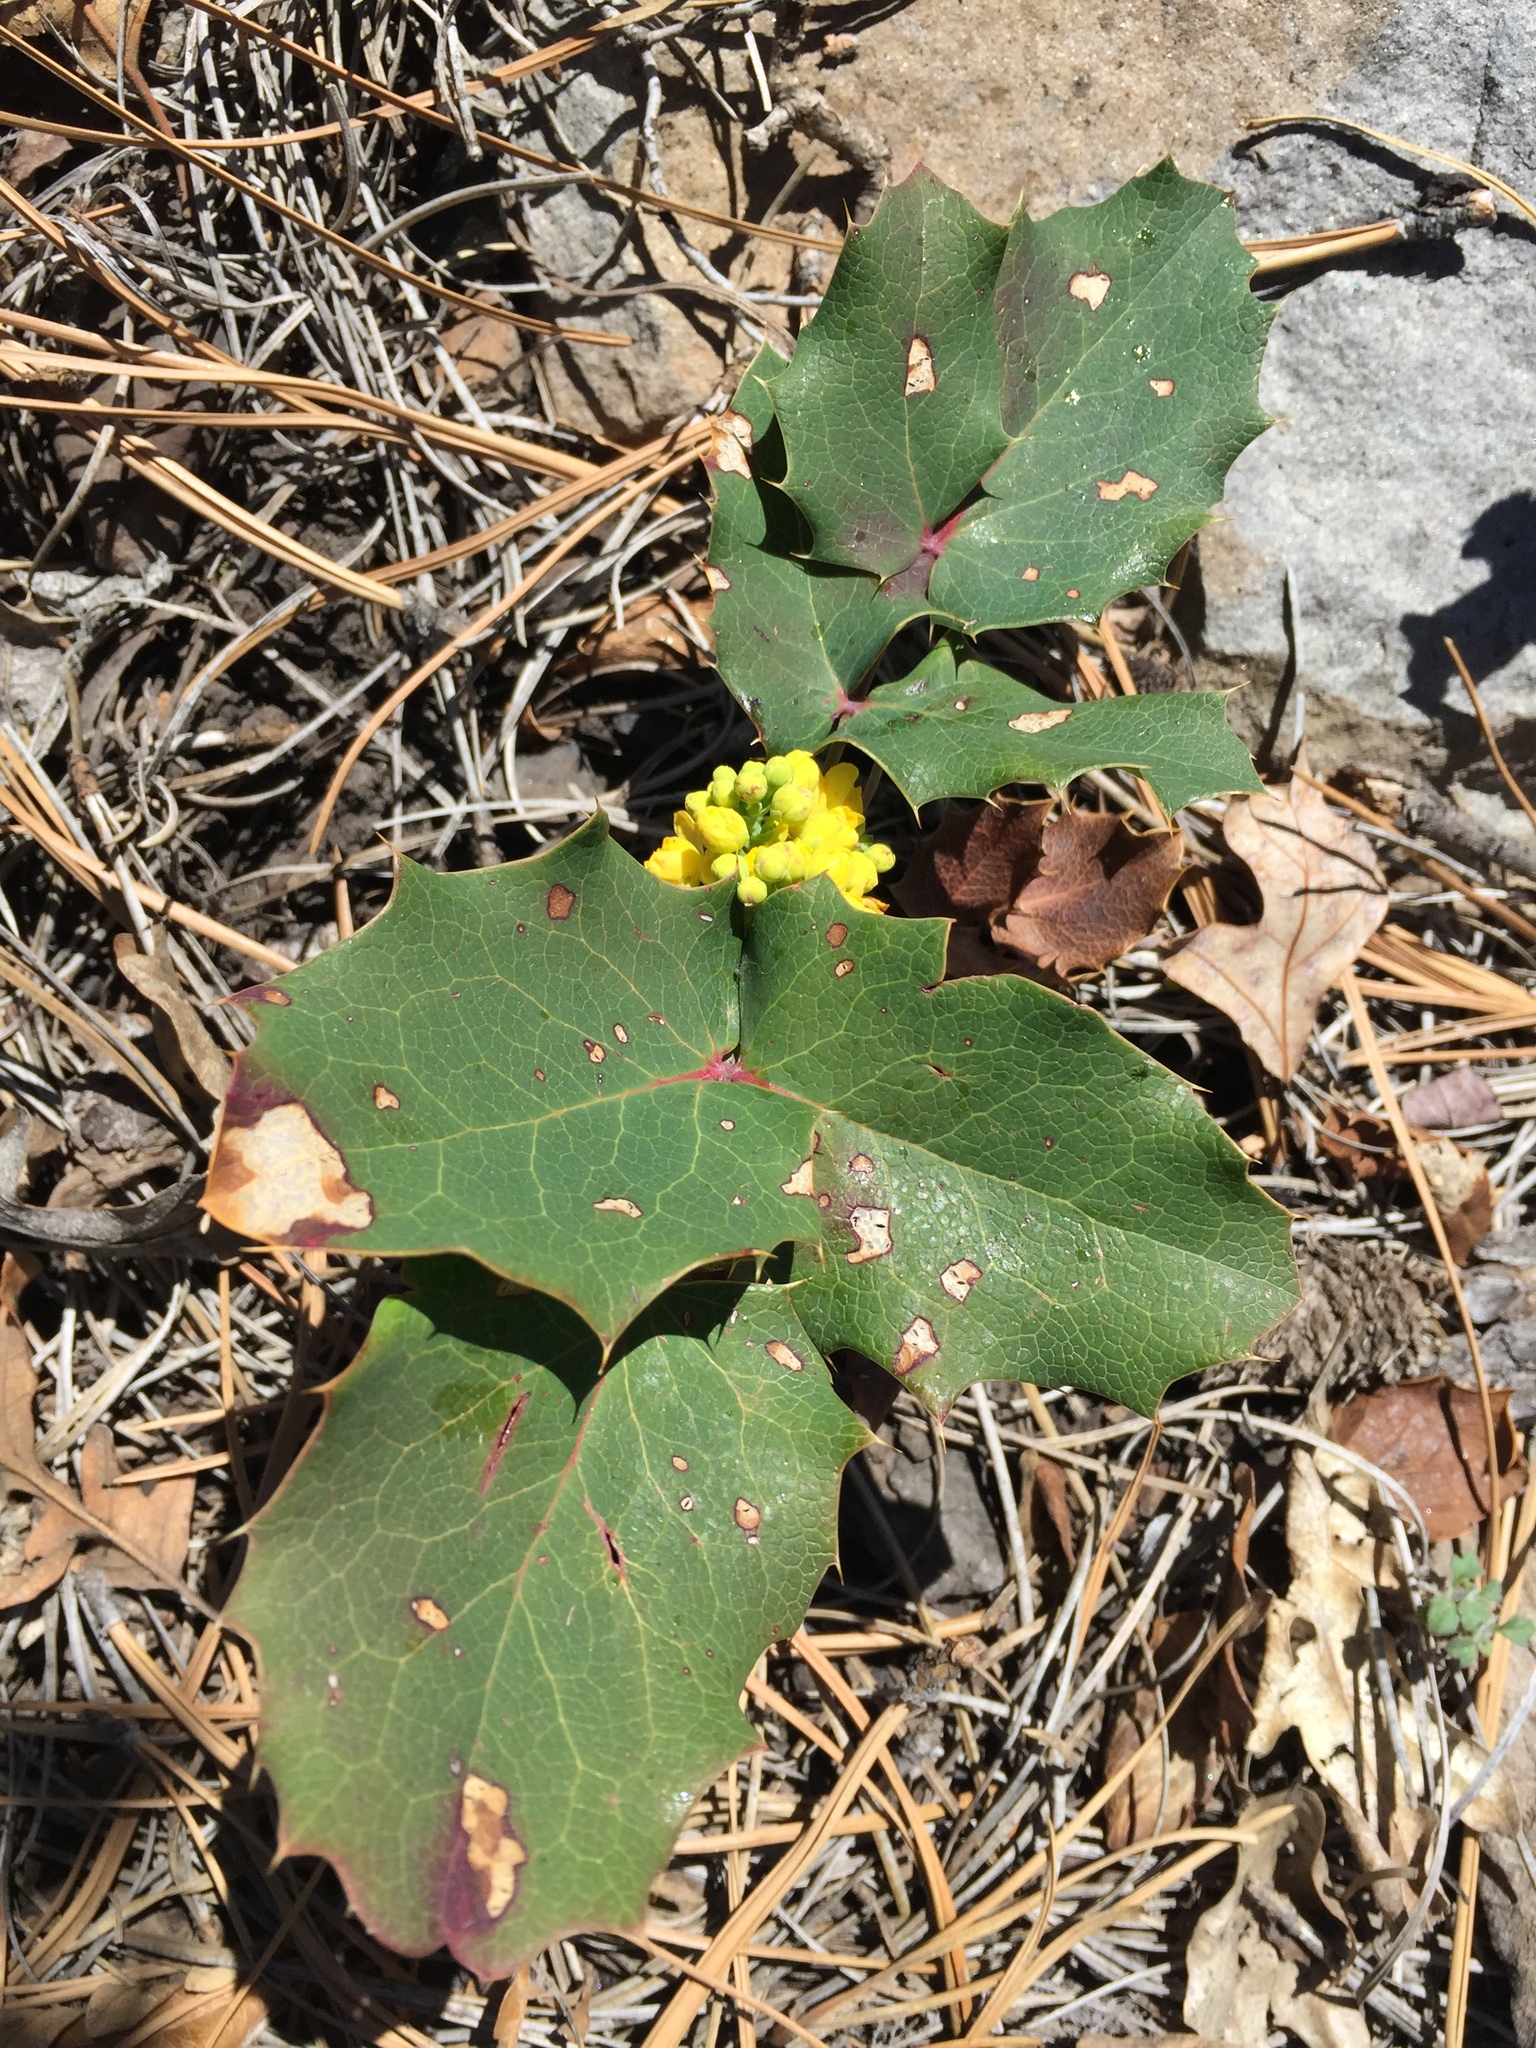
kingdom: Plantae
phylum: Tracheophyta
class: Magnoliopsida
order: Ranunculales
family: Berberidaceae
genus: Mahonia
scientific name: Mahonia repens
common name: Creeping oregon-grape
